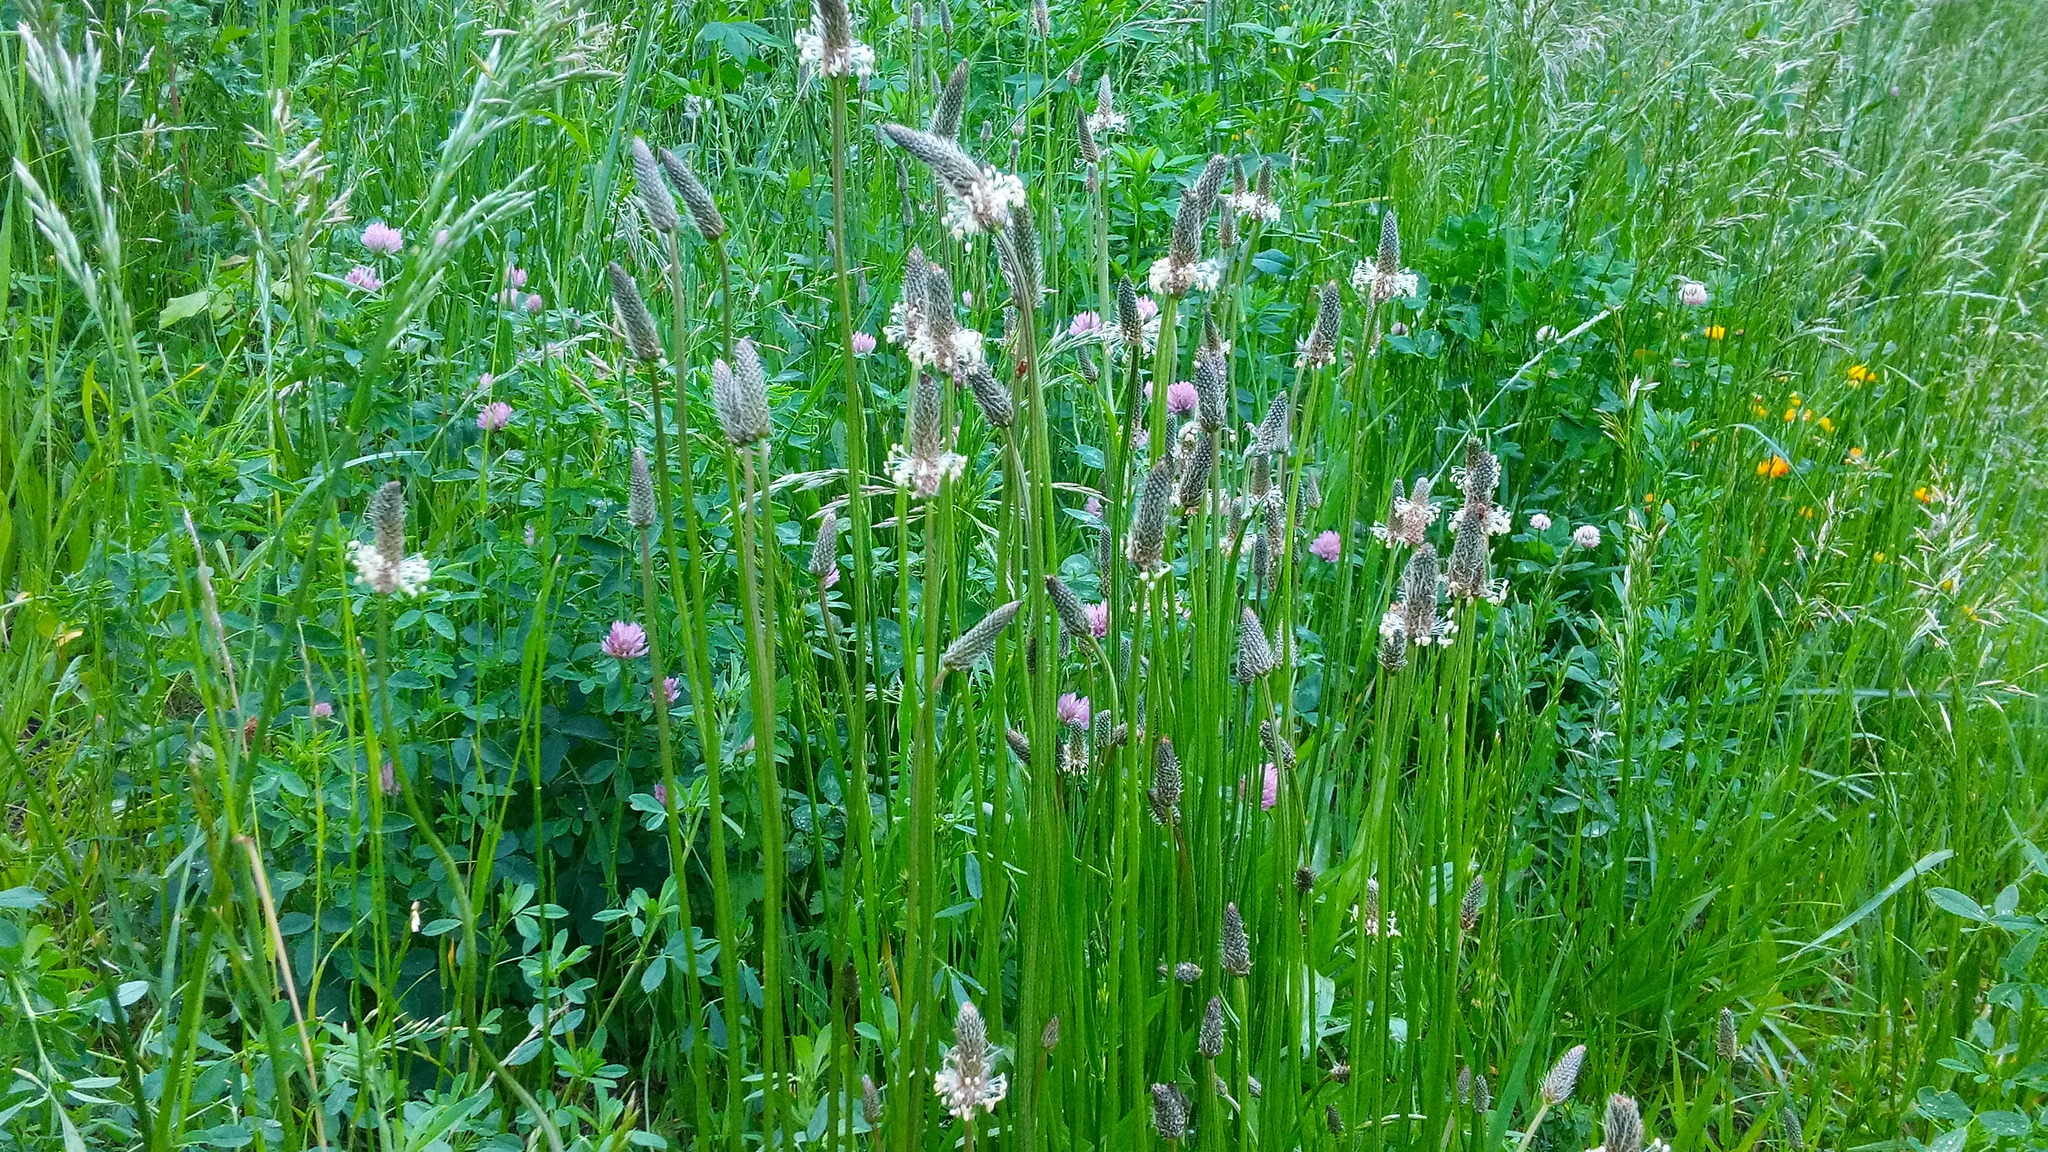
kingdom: Plantae
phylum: Tracheophyta
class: Magnoliopsida
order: Lamiales
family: Plantaginaceae
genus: Plantago
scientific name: Plantago lanceolata
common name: Ribwort plantain
